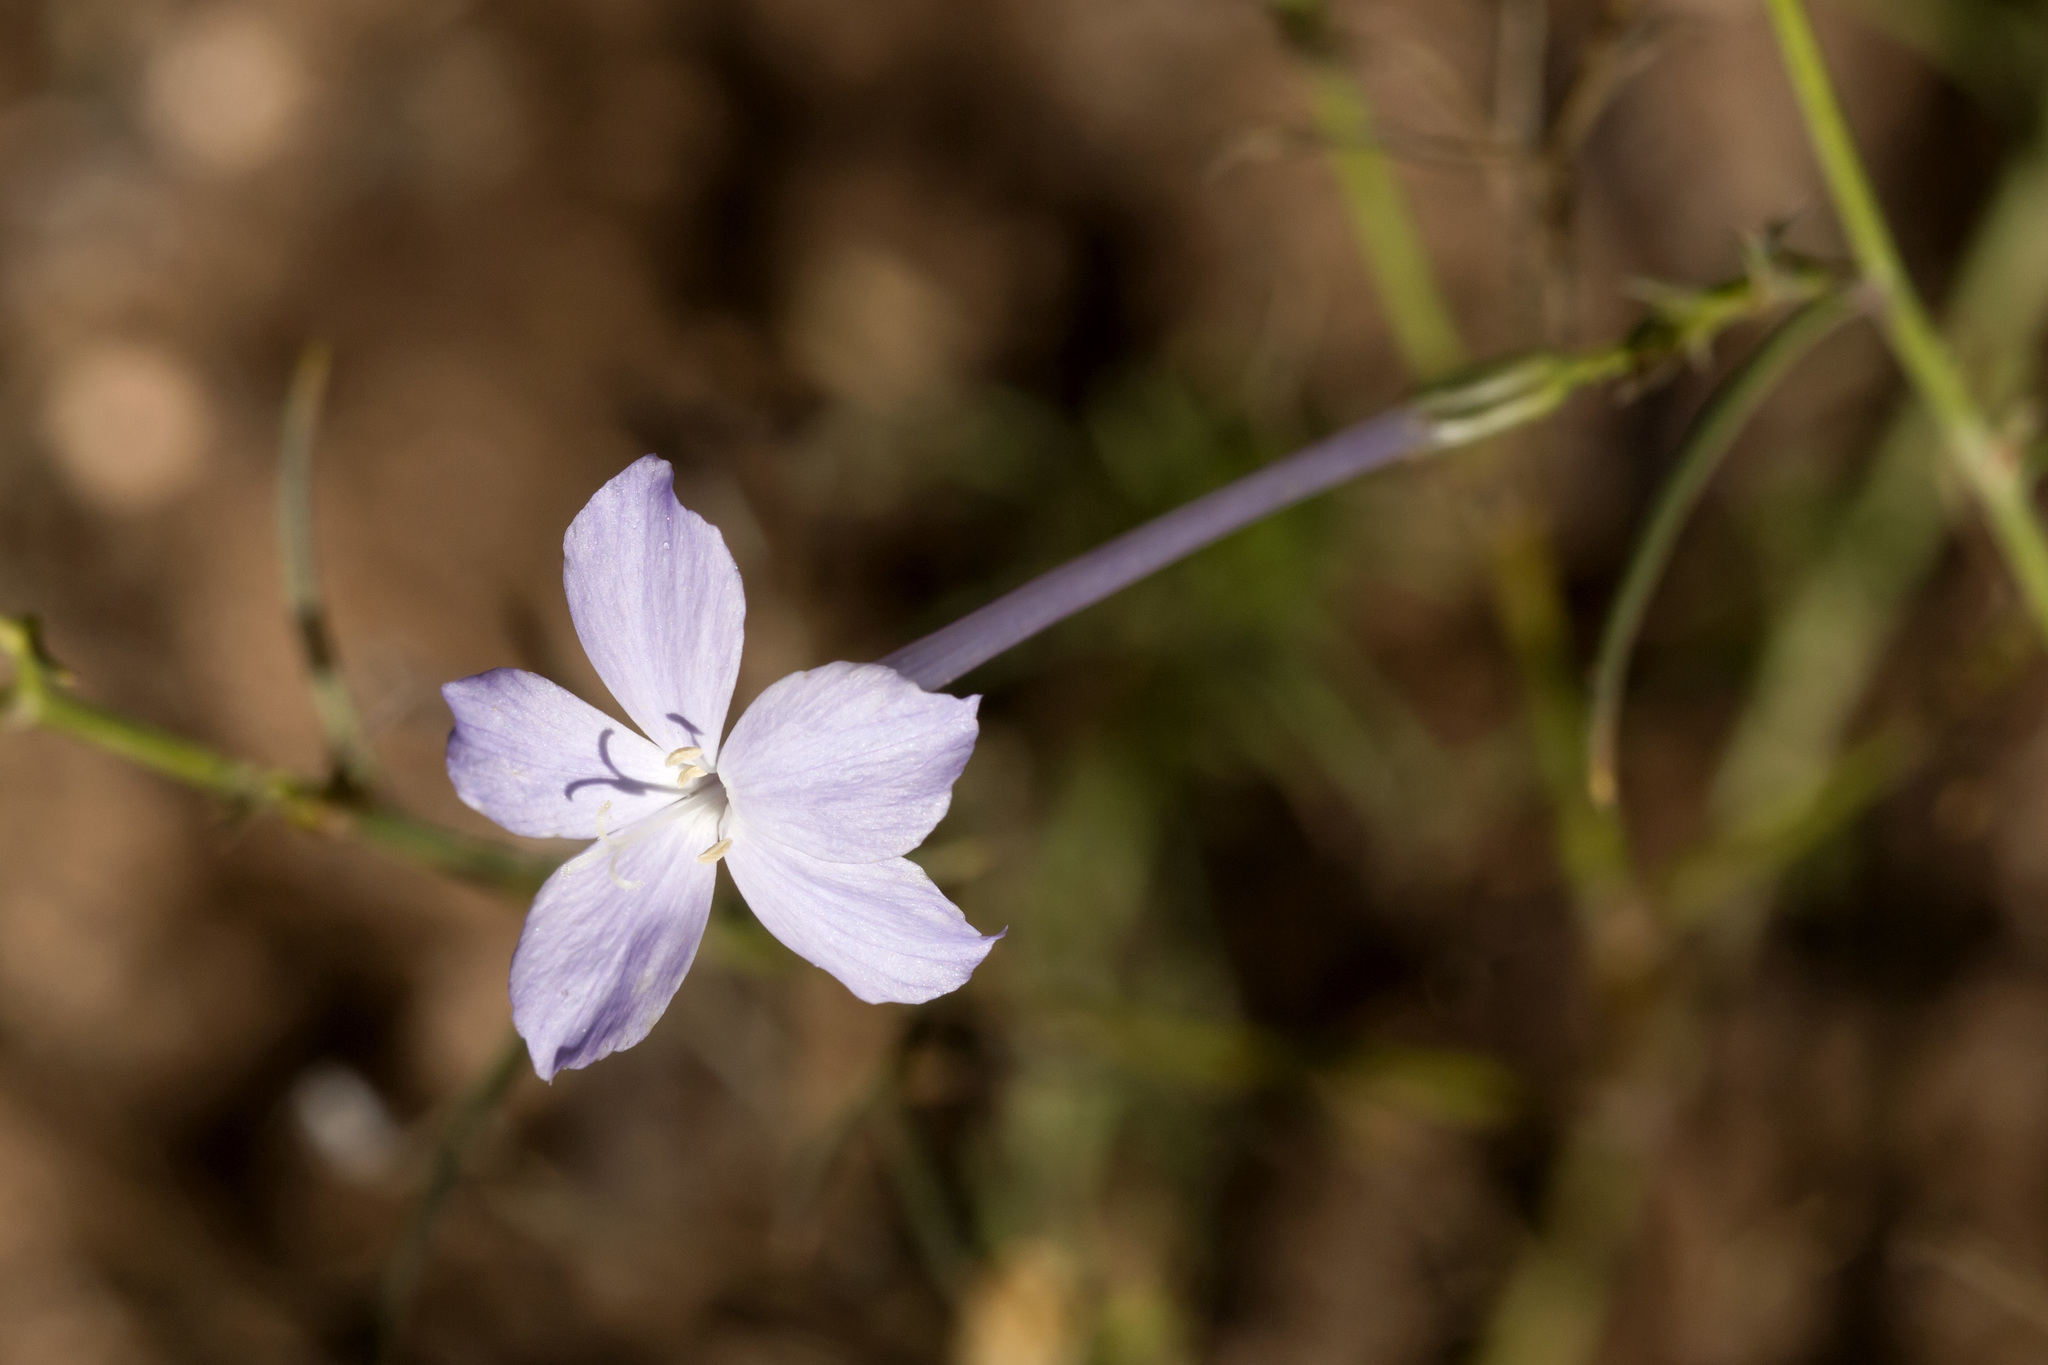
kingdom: Plantae
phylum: Tracheophyta
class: Magnoliopsida
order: Ericales
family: Polemoniaceae
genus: Ipomopsis
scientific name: Ipomopsis longiflora
